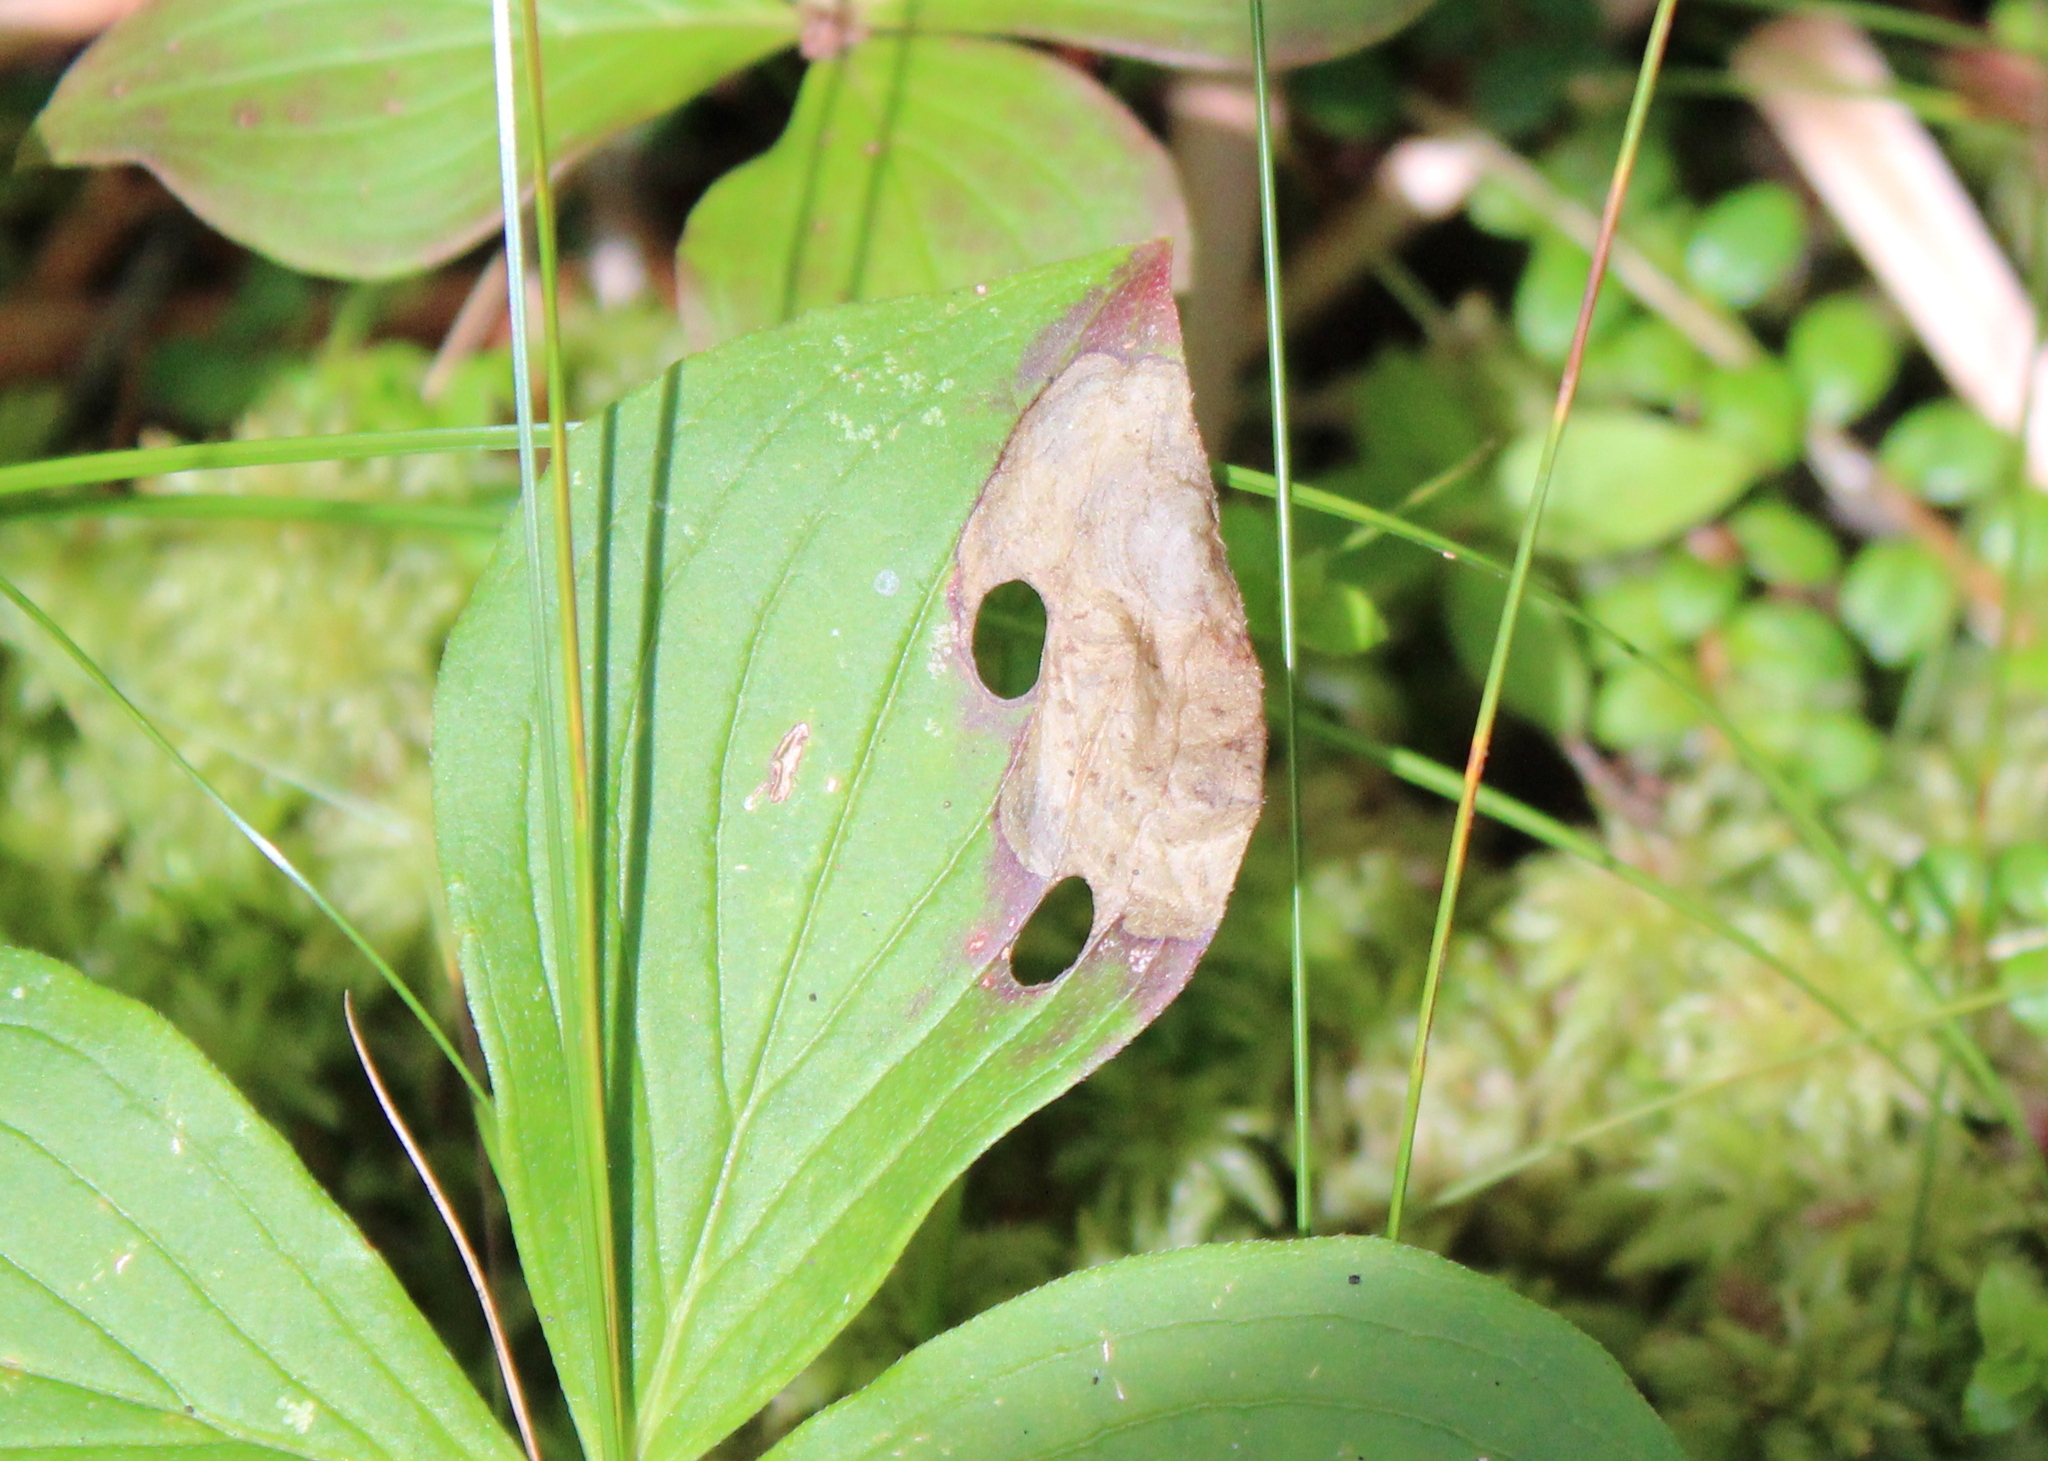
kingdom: Animalia
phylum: Arthropoda
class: Insecta
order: Lepidoptera
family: Heliozelidae
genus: Antispila
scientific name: Antispila freemani
